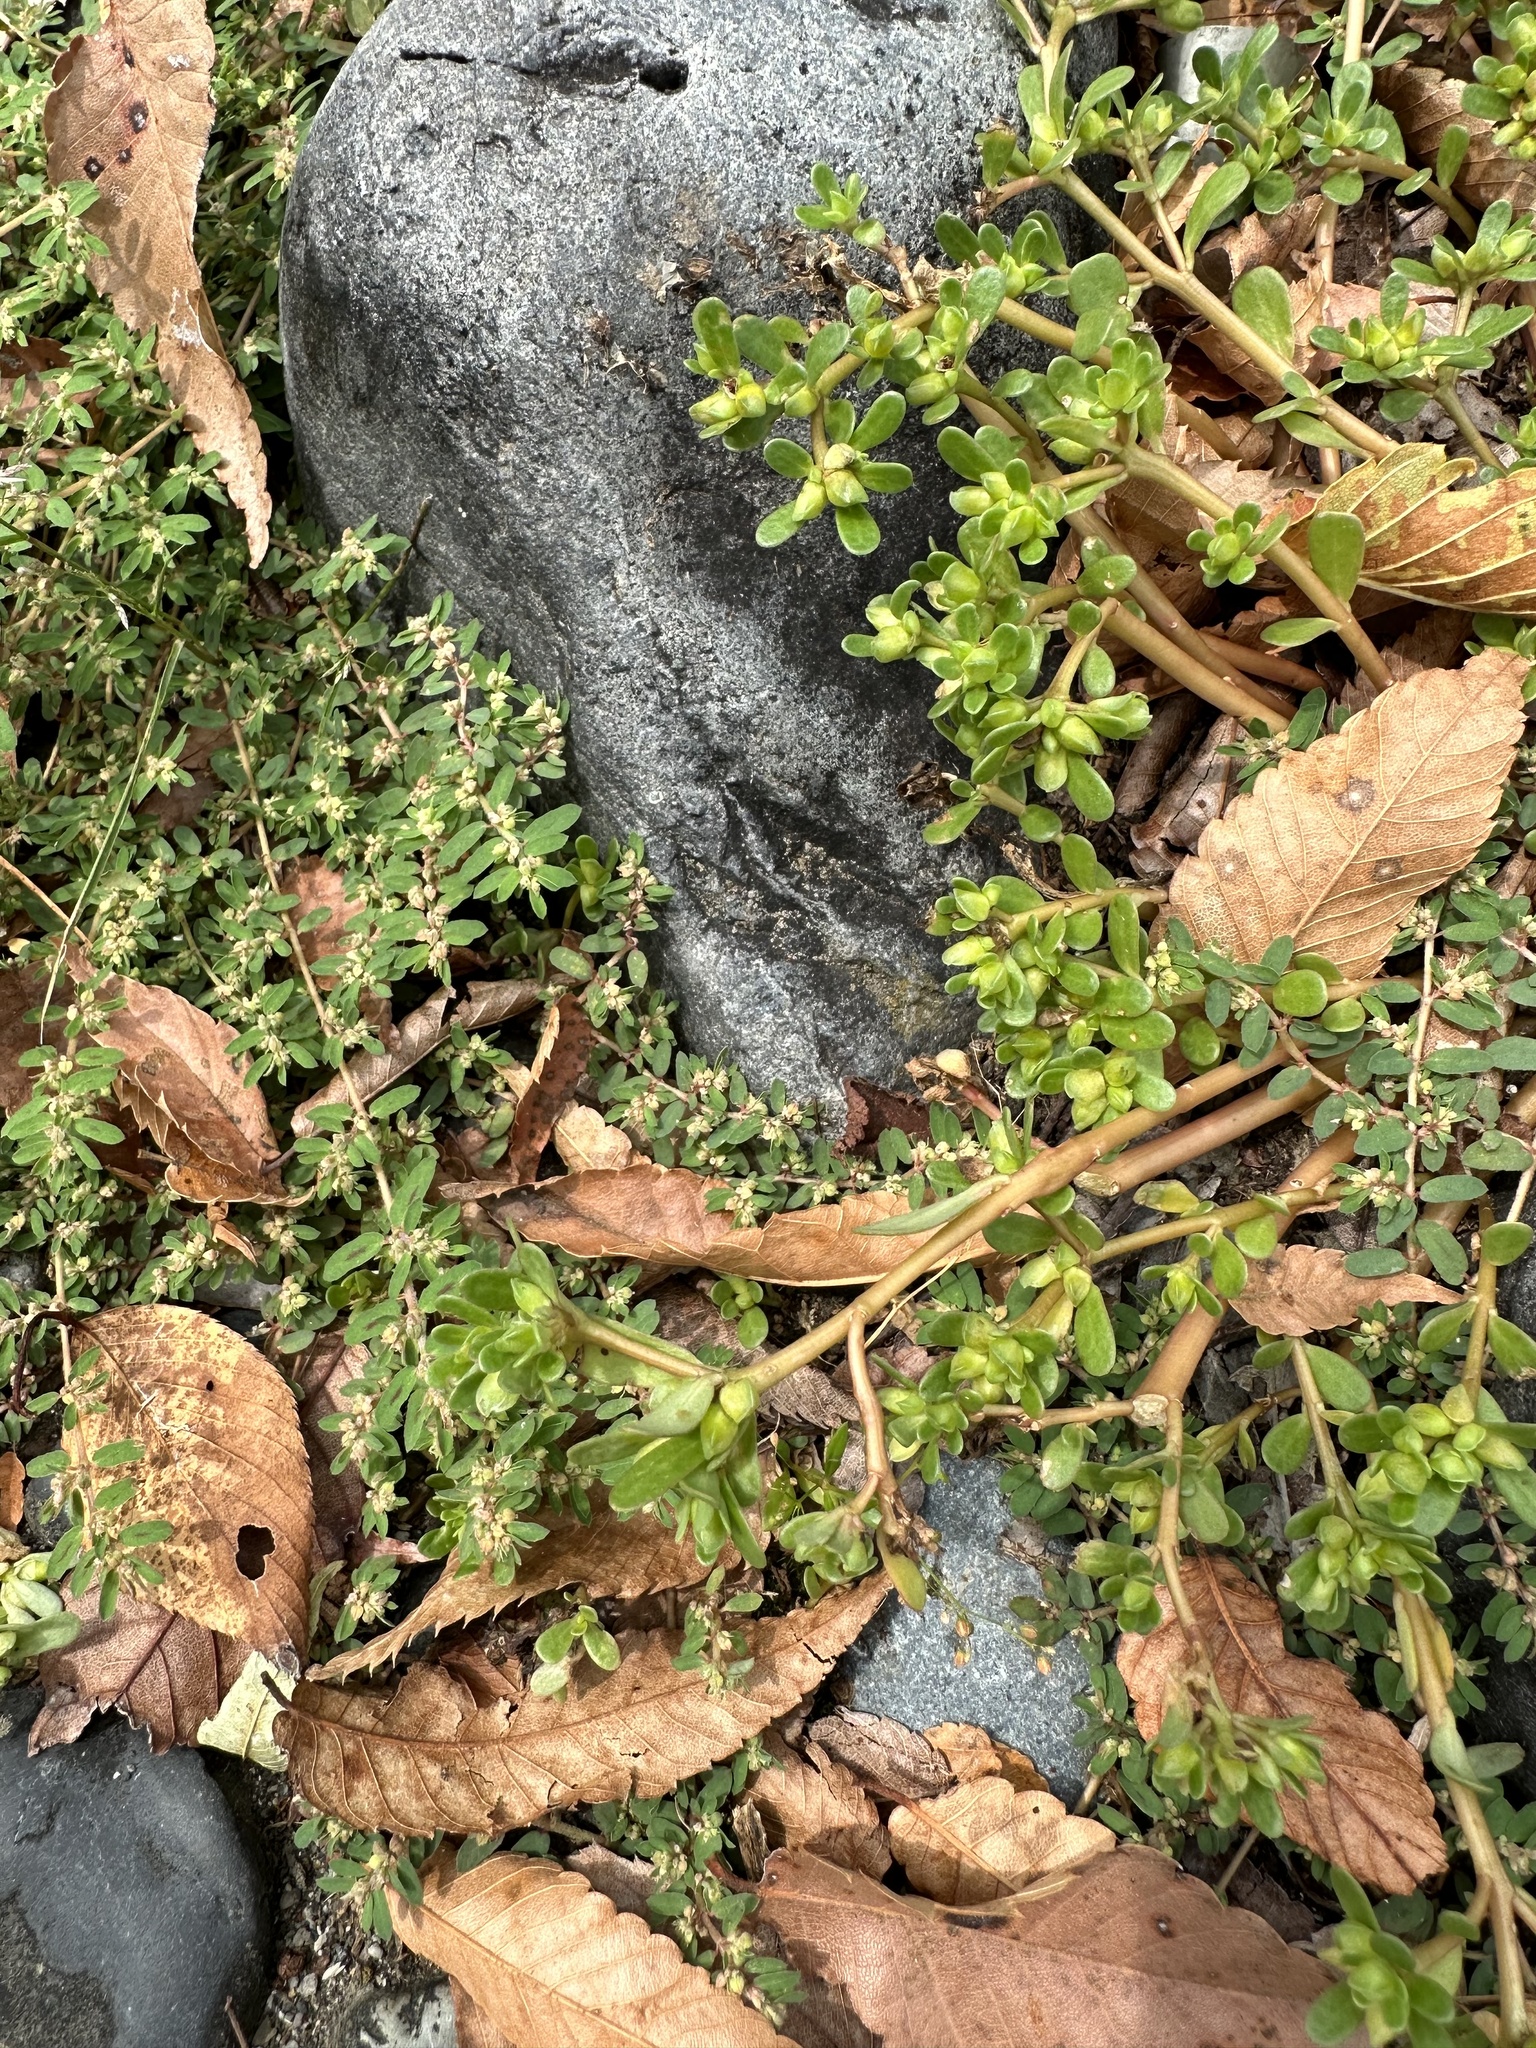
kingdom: Plantae
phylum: Tracheophyta
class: Magnoliopsida
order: Caryophyllales
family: Portulacaceae
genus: Portulaca
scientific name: Portulaca oleracea
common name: Common purslane
